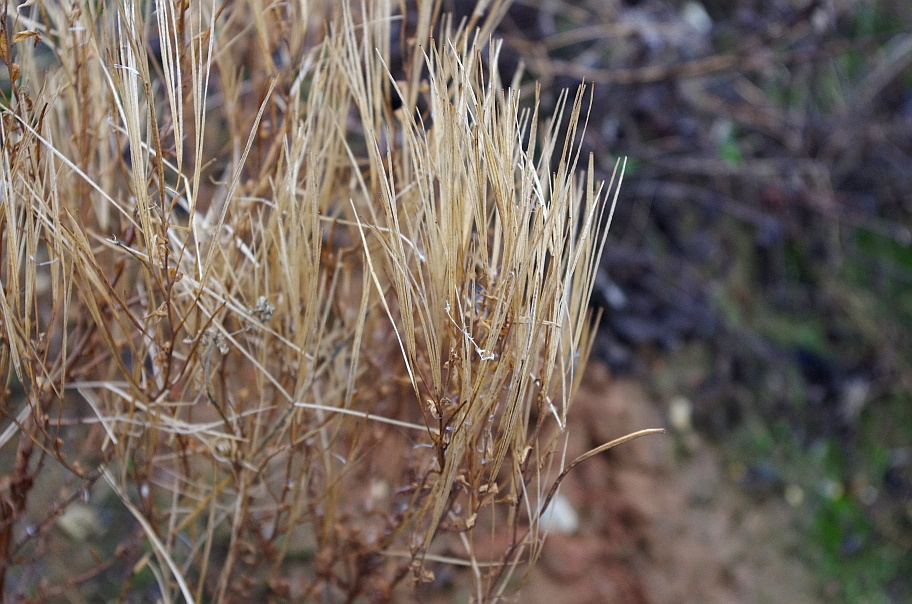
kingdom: Plantae
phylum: Tracheophyta
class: Magnoliopsida
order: Myrtales
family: Onagraceae
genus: Epilobium
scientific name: Epilobium lamyi
